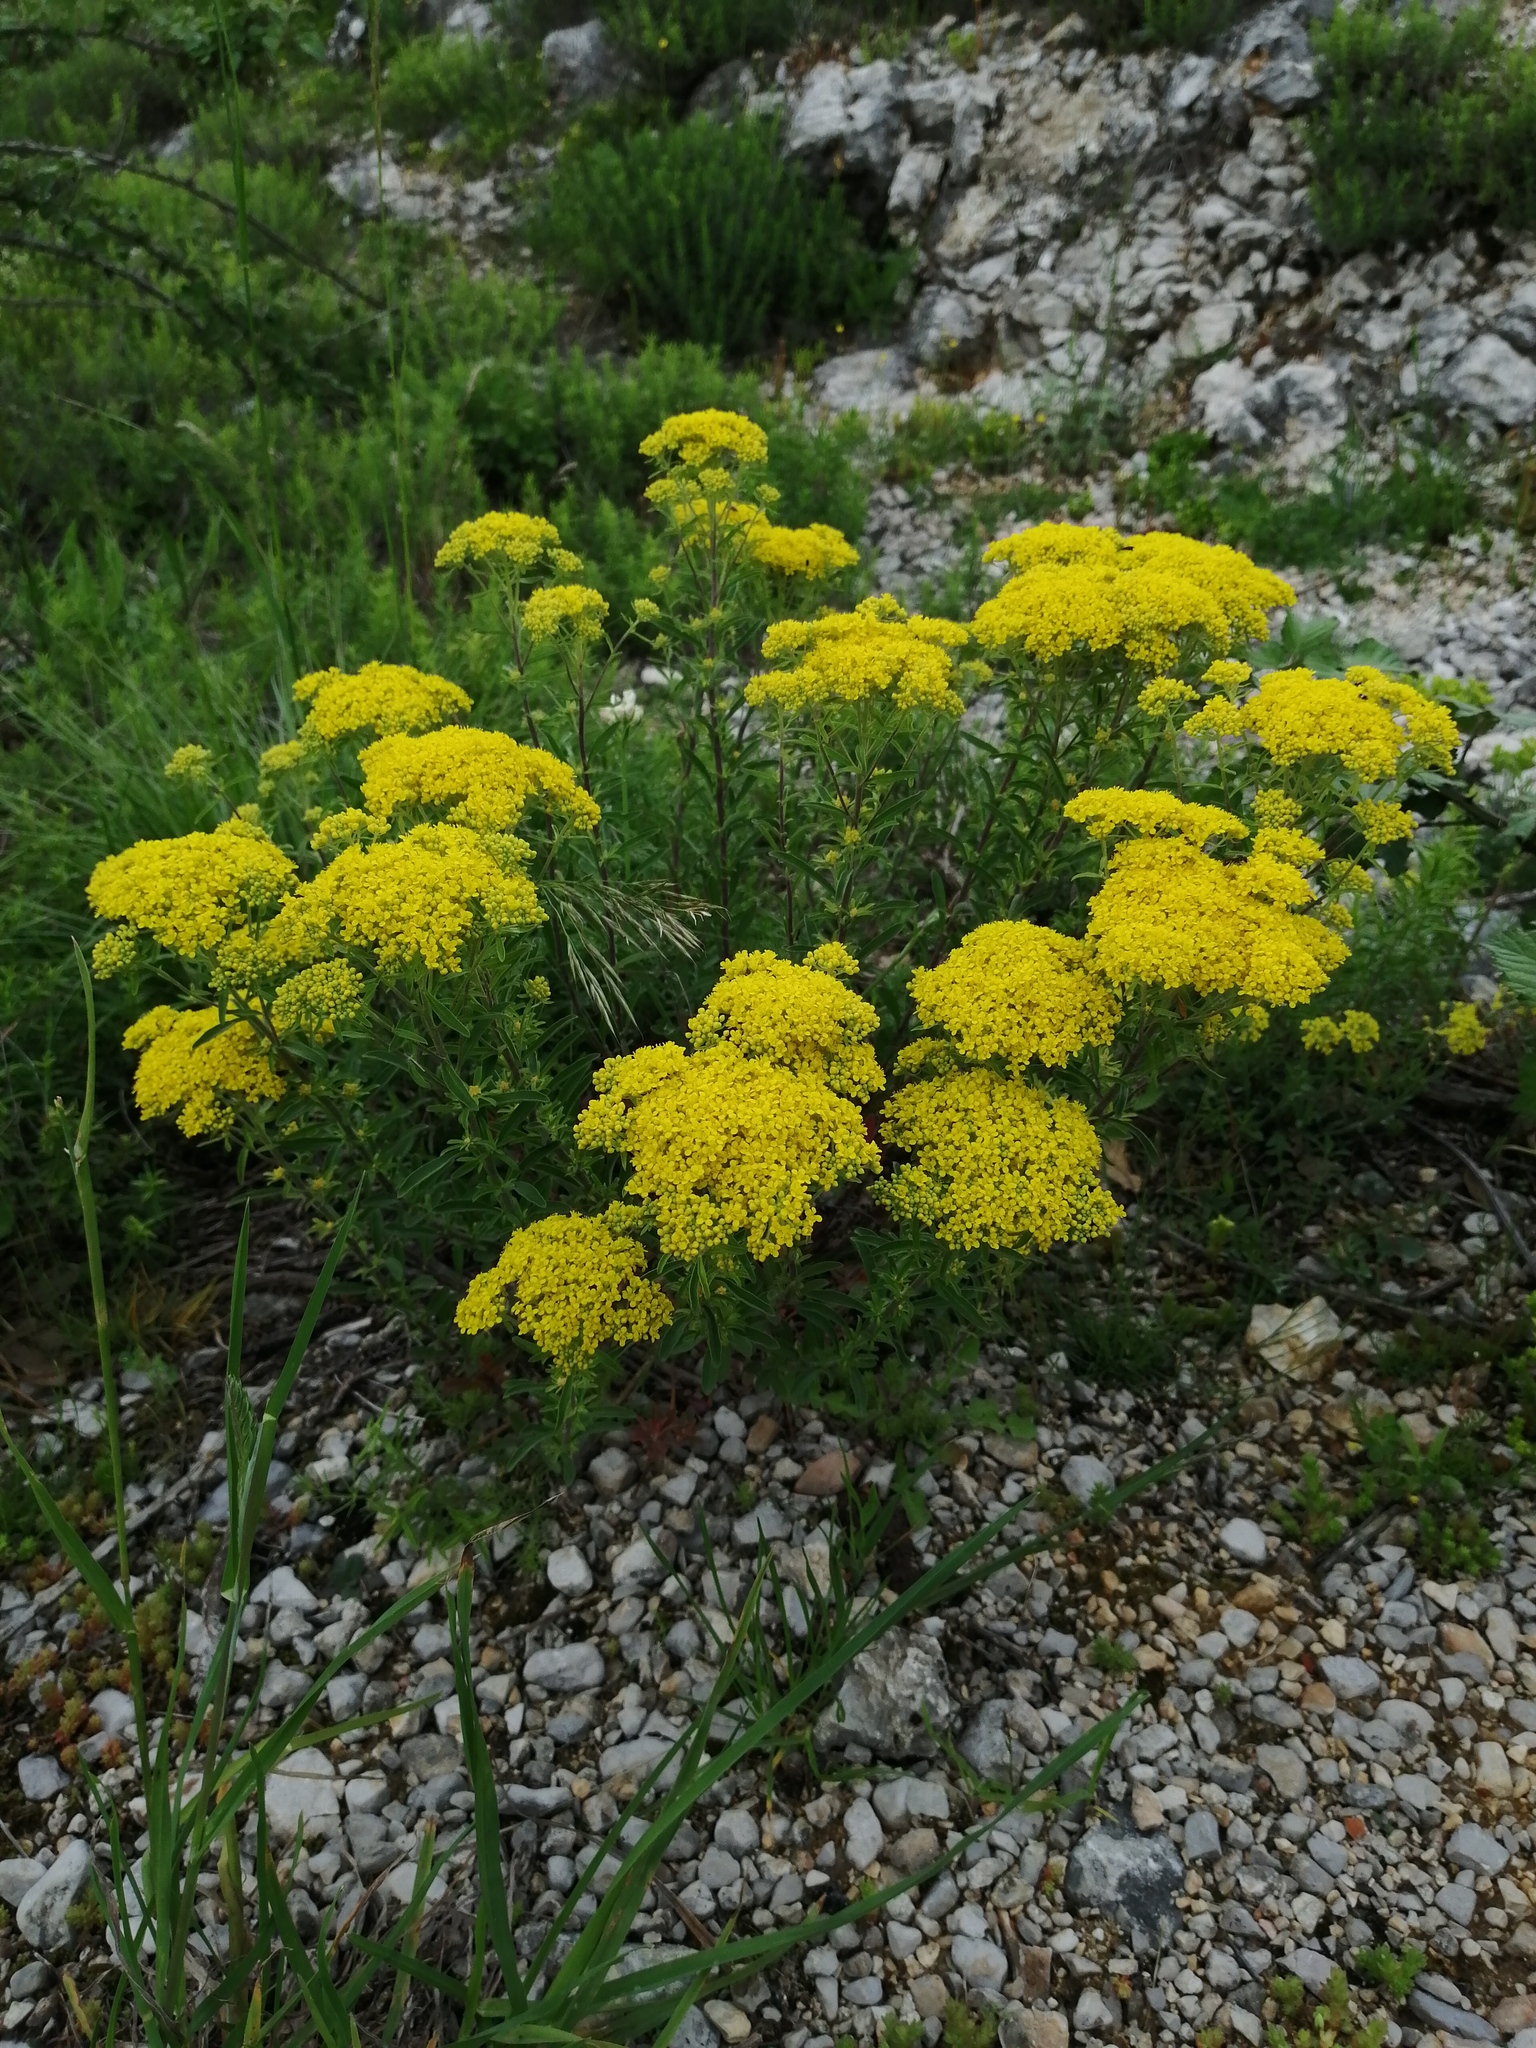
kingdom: Plantae
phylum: Tracheophyta
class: Magnoliopsida
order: Brassicales
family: Brassicaceae
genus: Odontarrhena
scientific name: Odontarrhena muralis
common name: Rock alyssum
